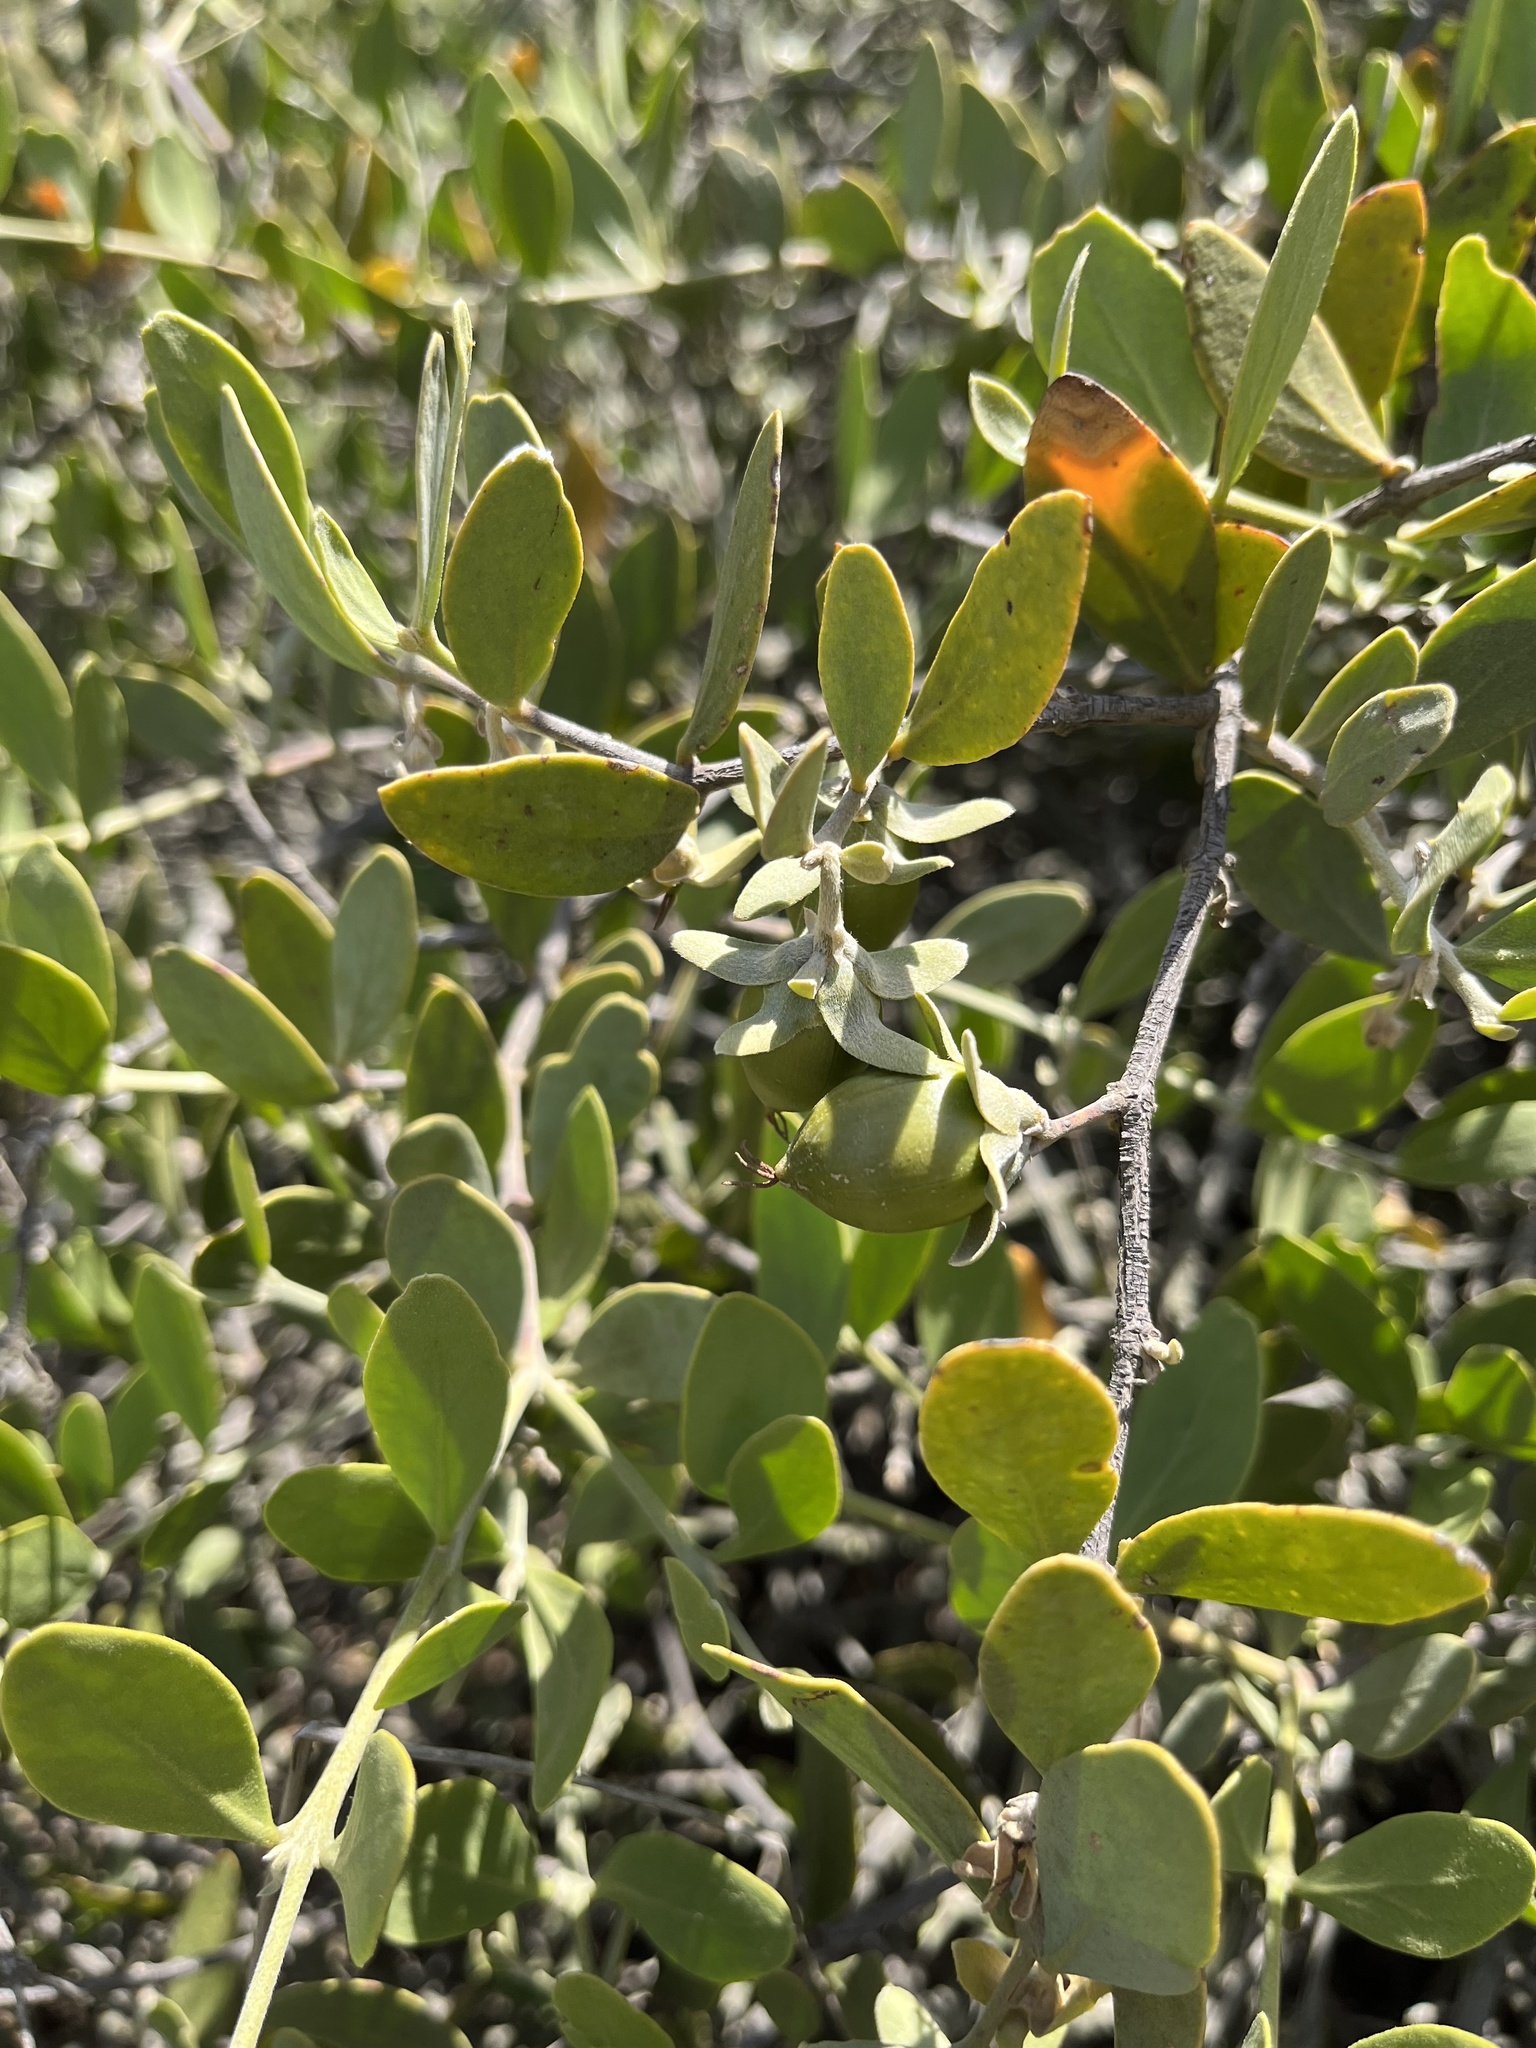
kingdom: Plantae
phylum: Tracheophyta
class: Magnoliopsida
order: Caryophyllales
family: Simmondsiaceae
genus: Simmondsia
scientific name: Simmondsia chinensis
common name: Jojoba
